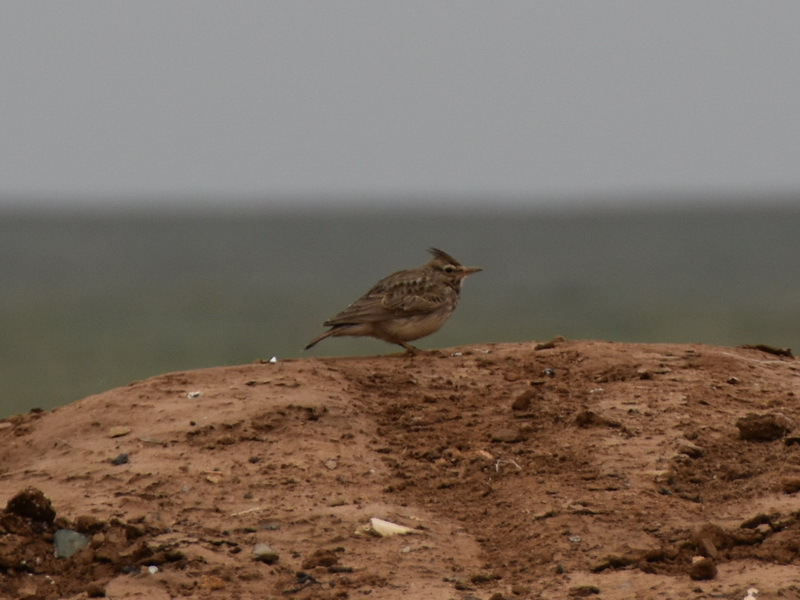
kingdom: Animalia
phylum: Chordata
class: Aves
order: Passeriformes
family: Alaudidae
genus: Galerida
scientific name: Galerida cristata
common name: Crested lark
